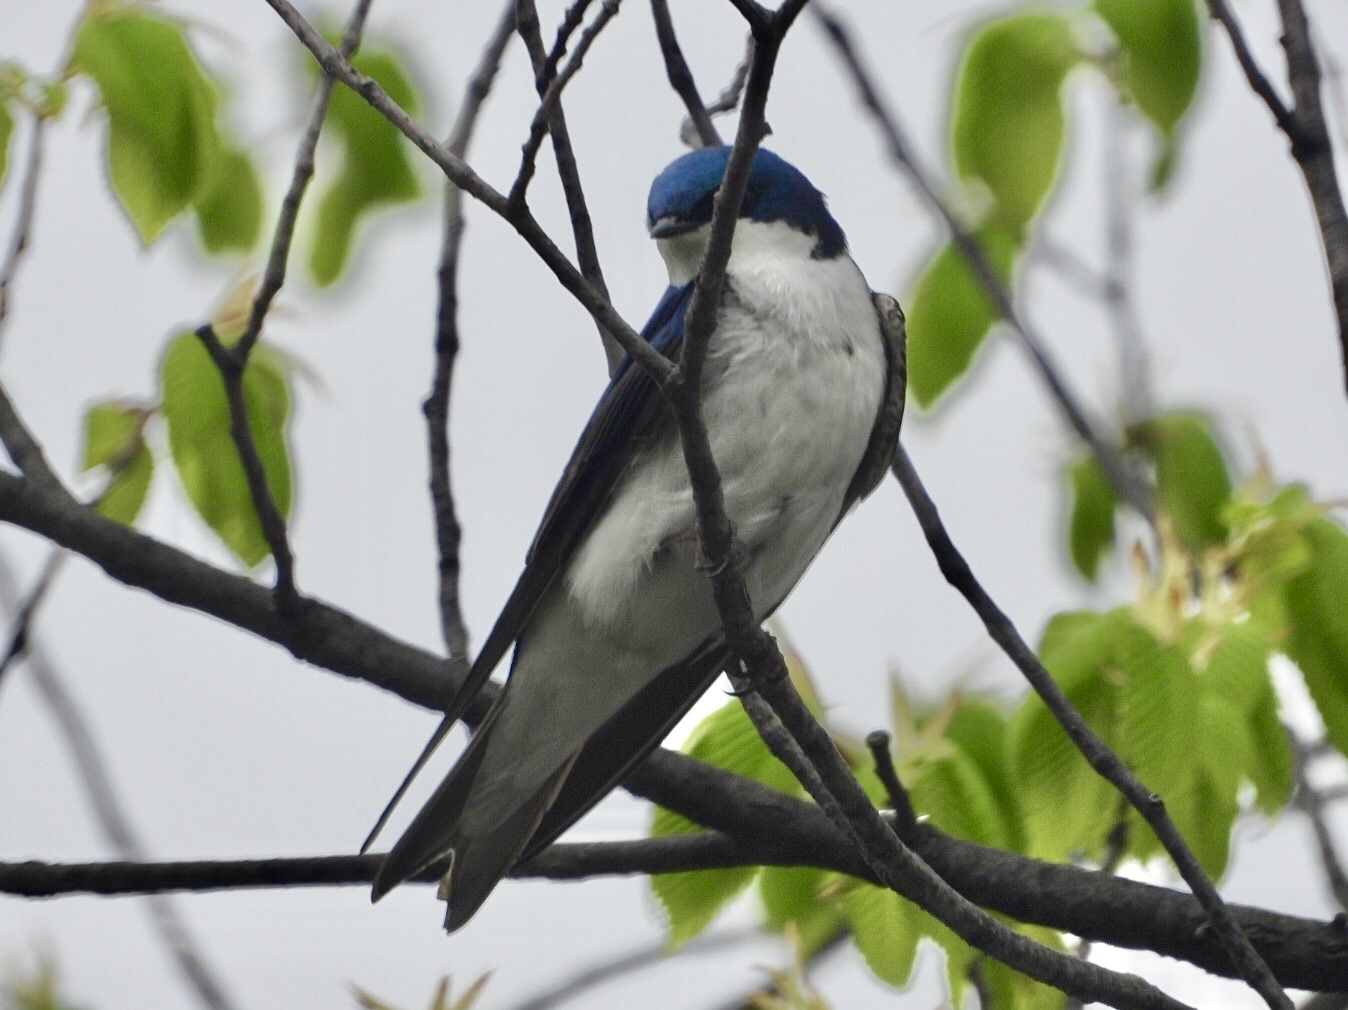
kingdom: Animalia
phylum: Chordata
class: Aves
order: Passeriformes
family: Hirundinidae
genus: Tachycineta
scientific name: Tachycineta bicolor
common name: Tree swallow
